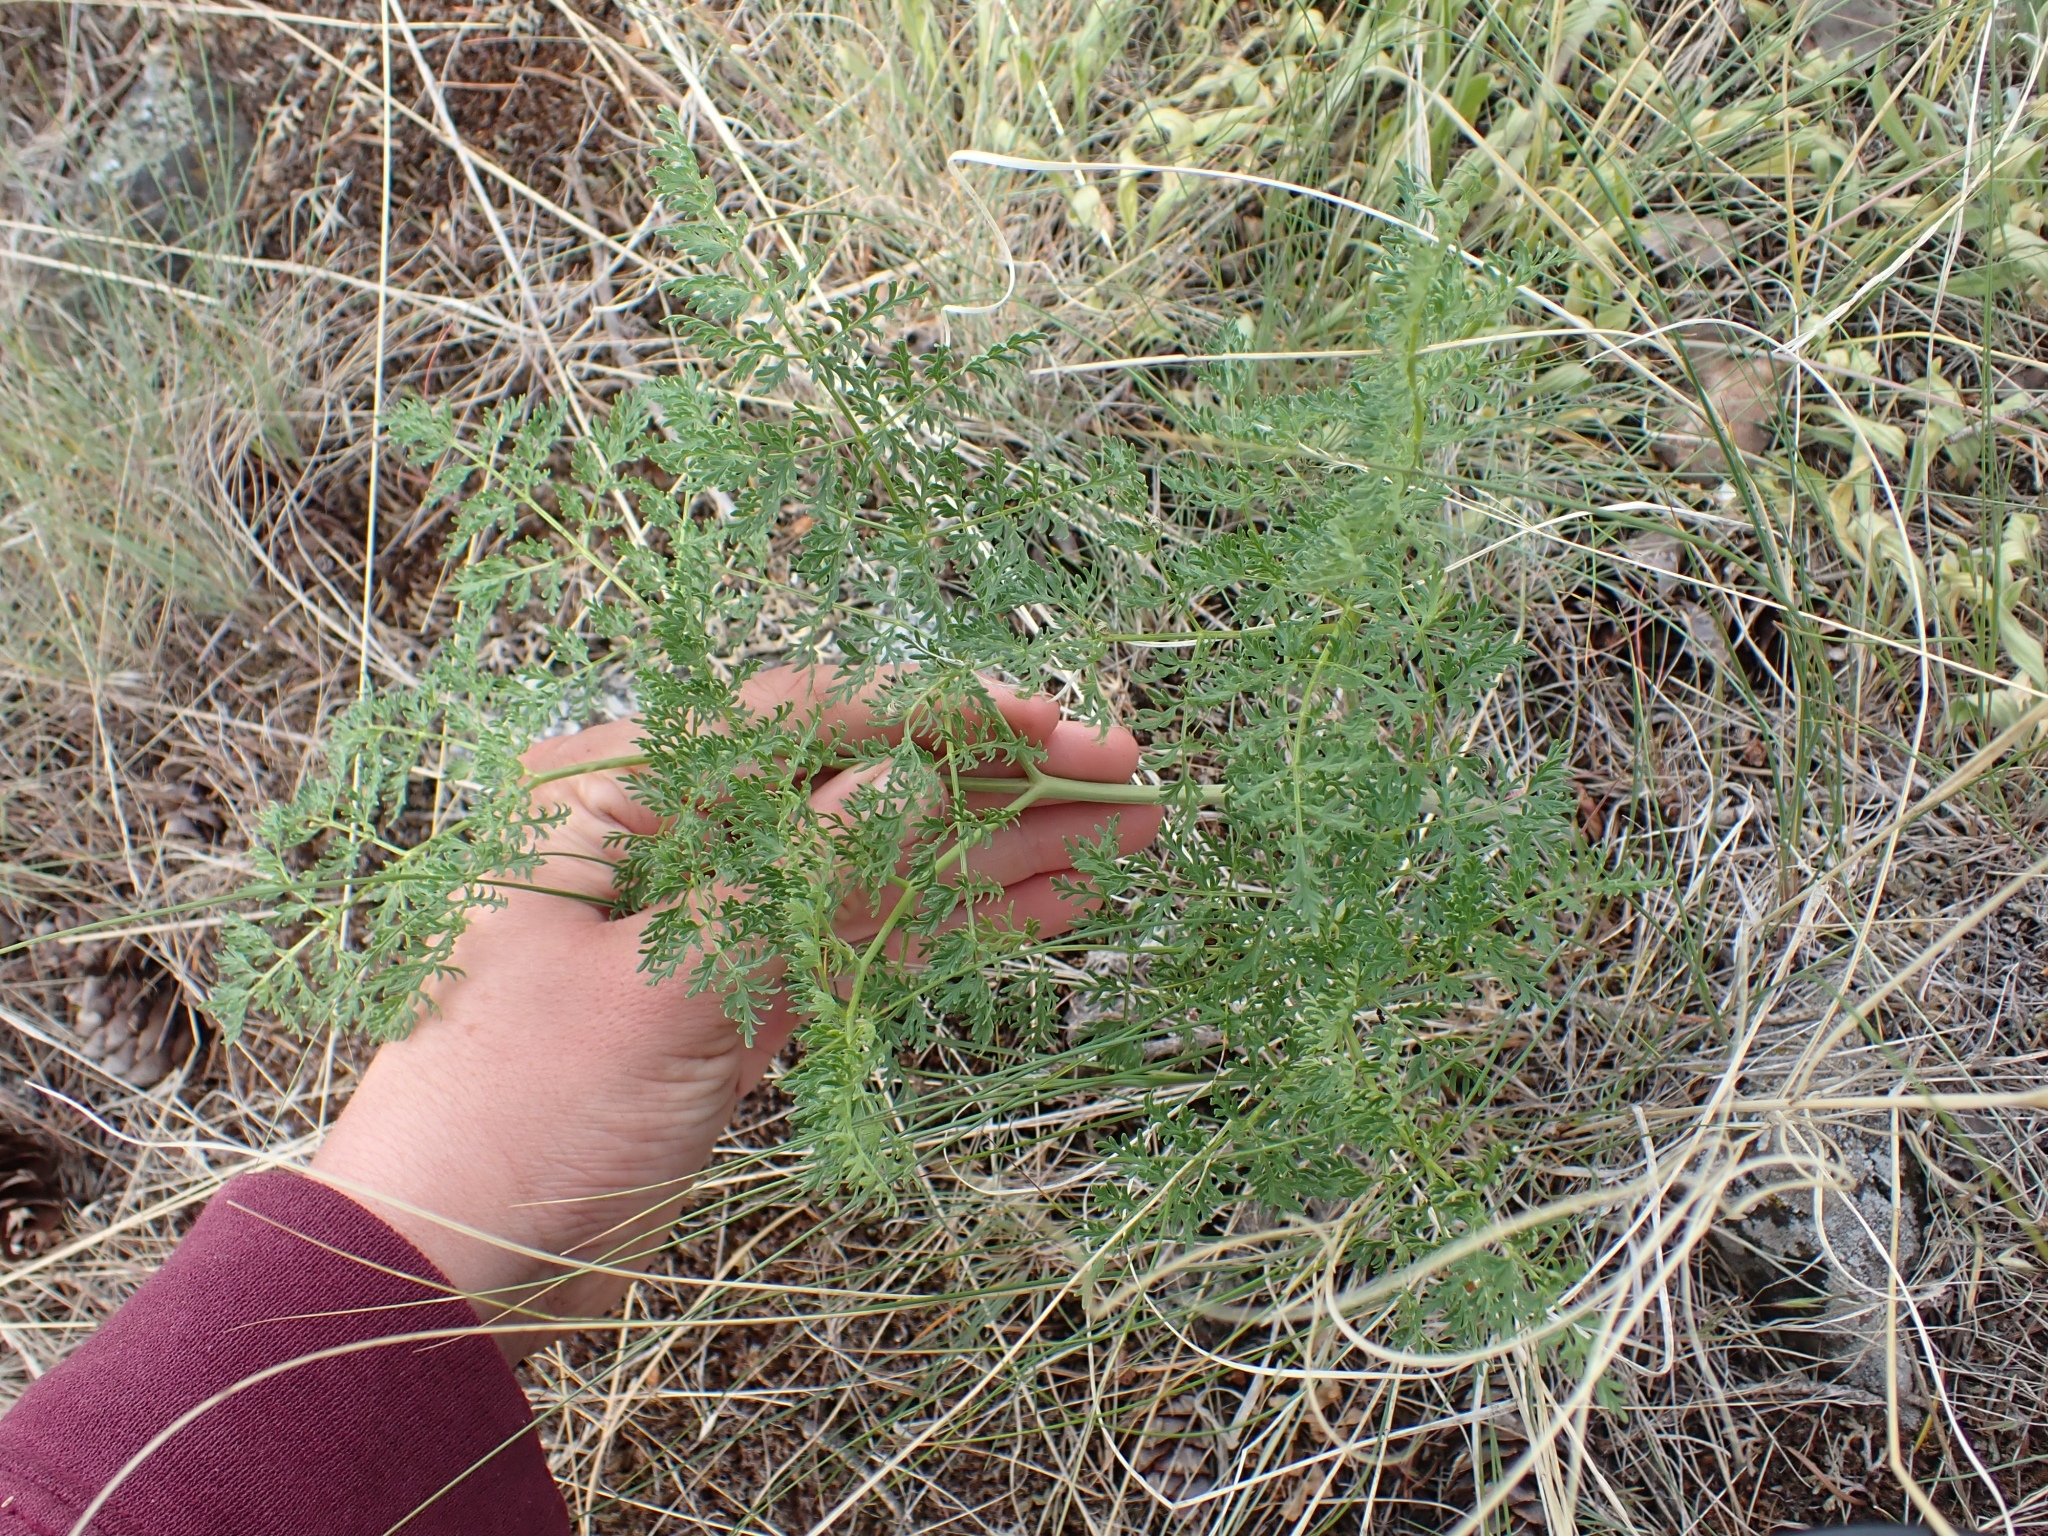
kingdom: Plantae
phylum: Tracheophyta
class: Magnoliopsida
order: Apiales
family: Apiaceae
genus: Lomatium
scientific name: Lomatium multifidum
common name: Carrot-leaved biscuitroot
